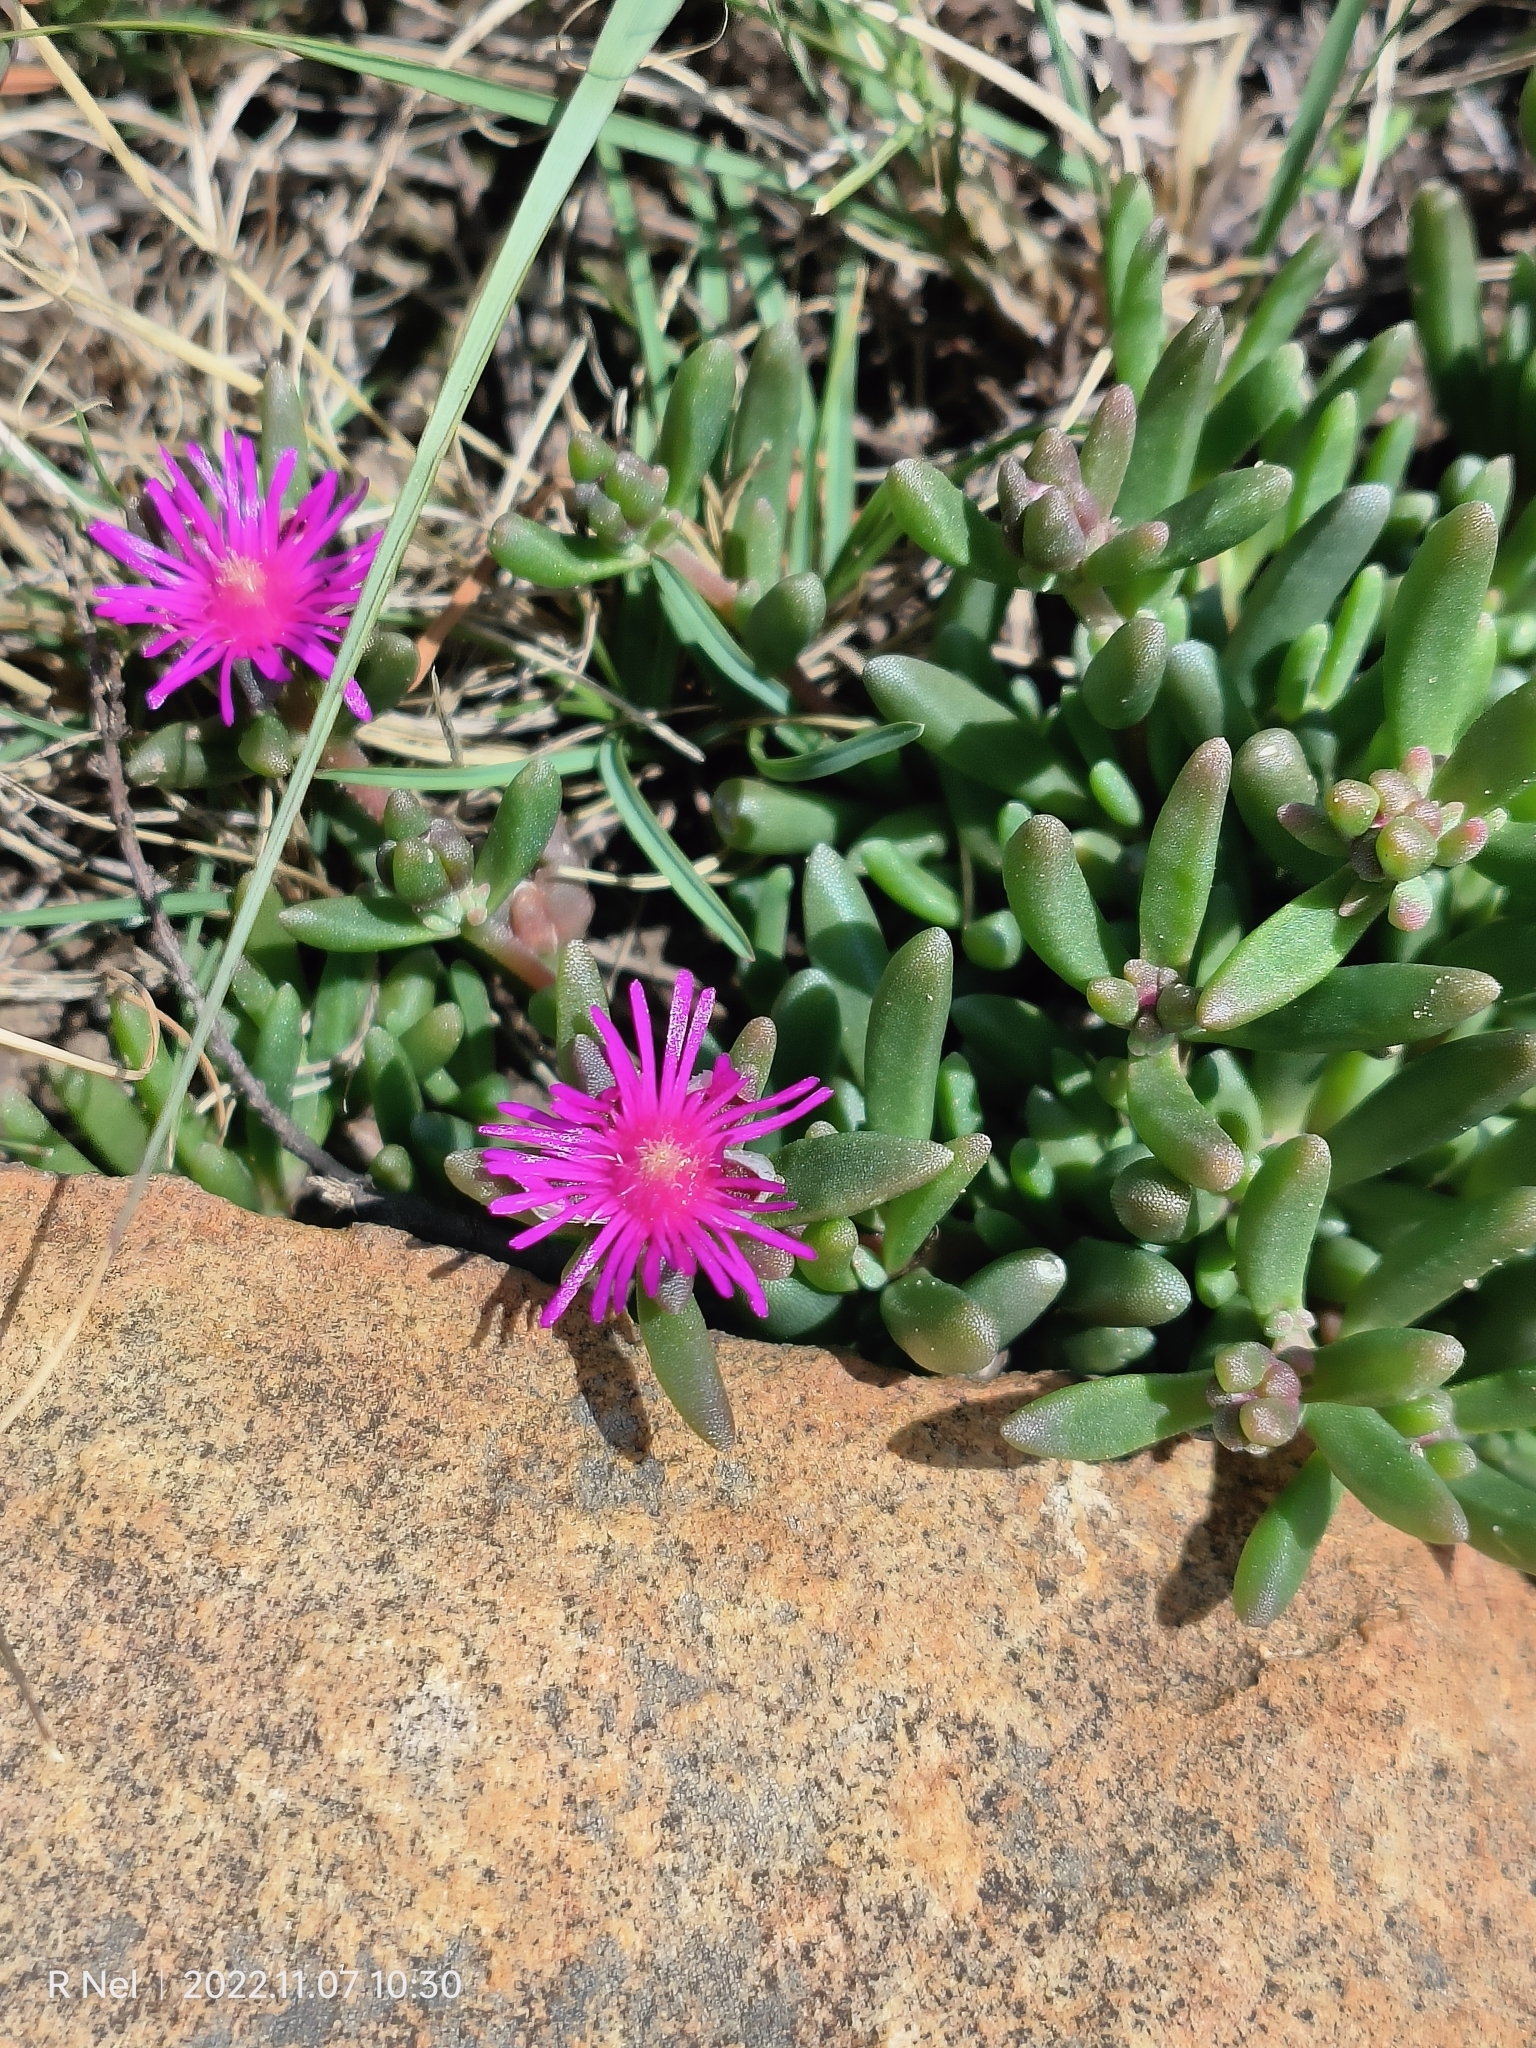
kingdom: Plantae
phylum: Tracheophyta
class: Magnoliopsida
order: Caryophyllales
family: Aizoaceae
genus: Delosperma
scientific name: Delosperma lavisiae
